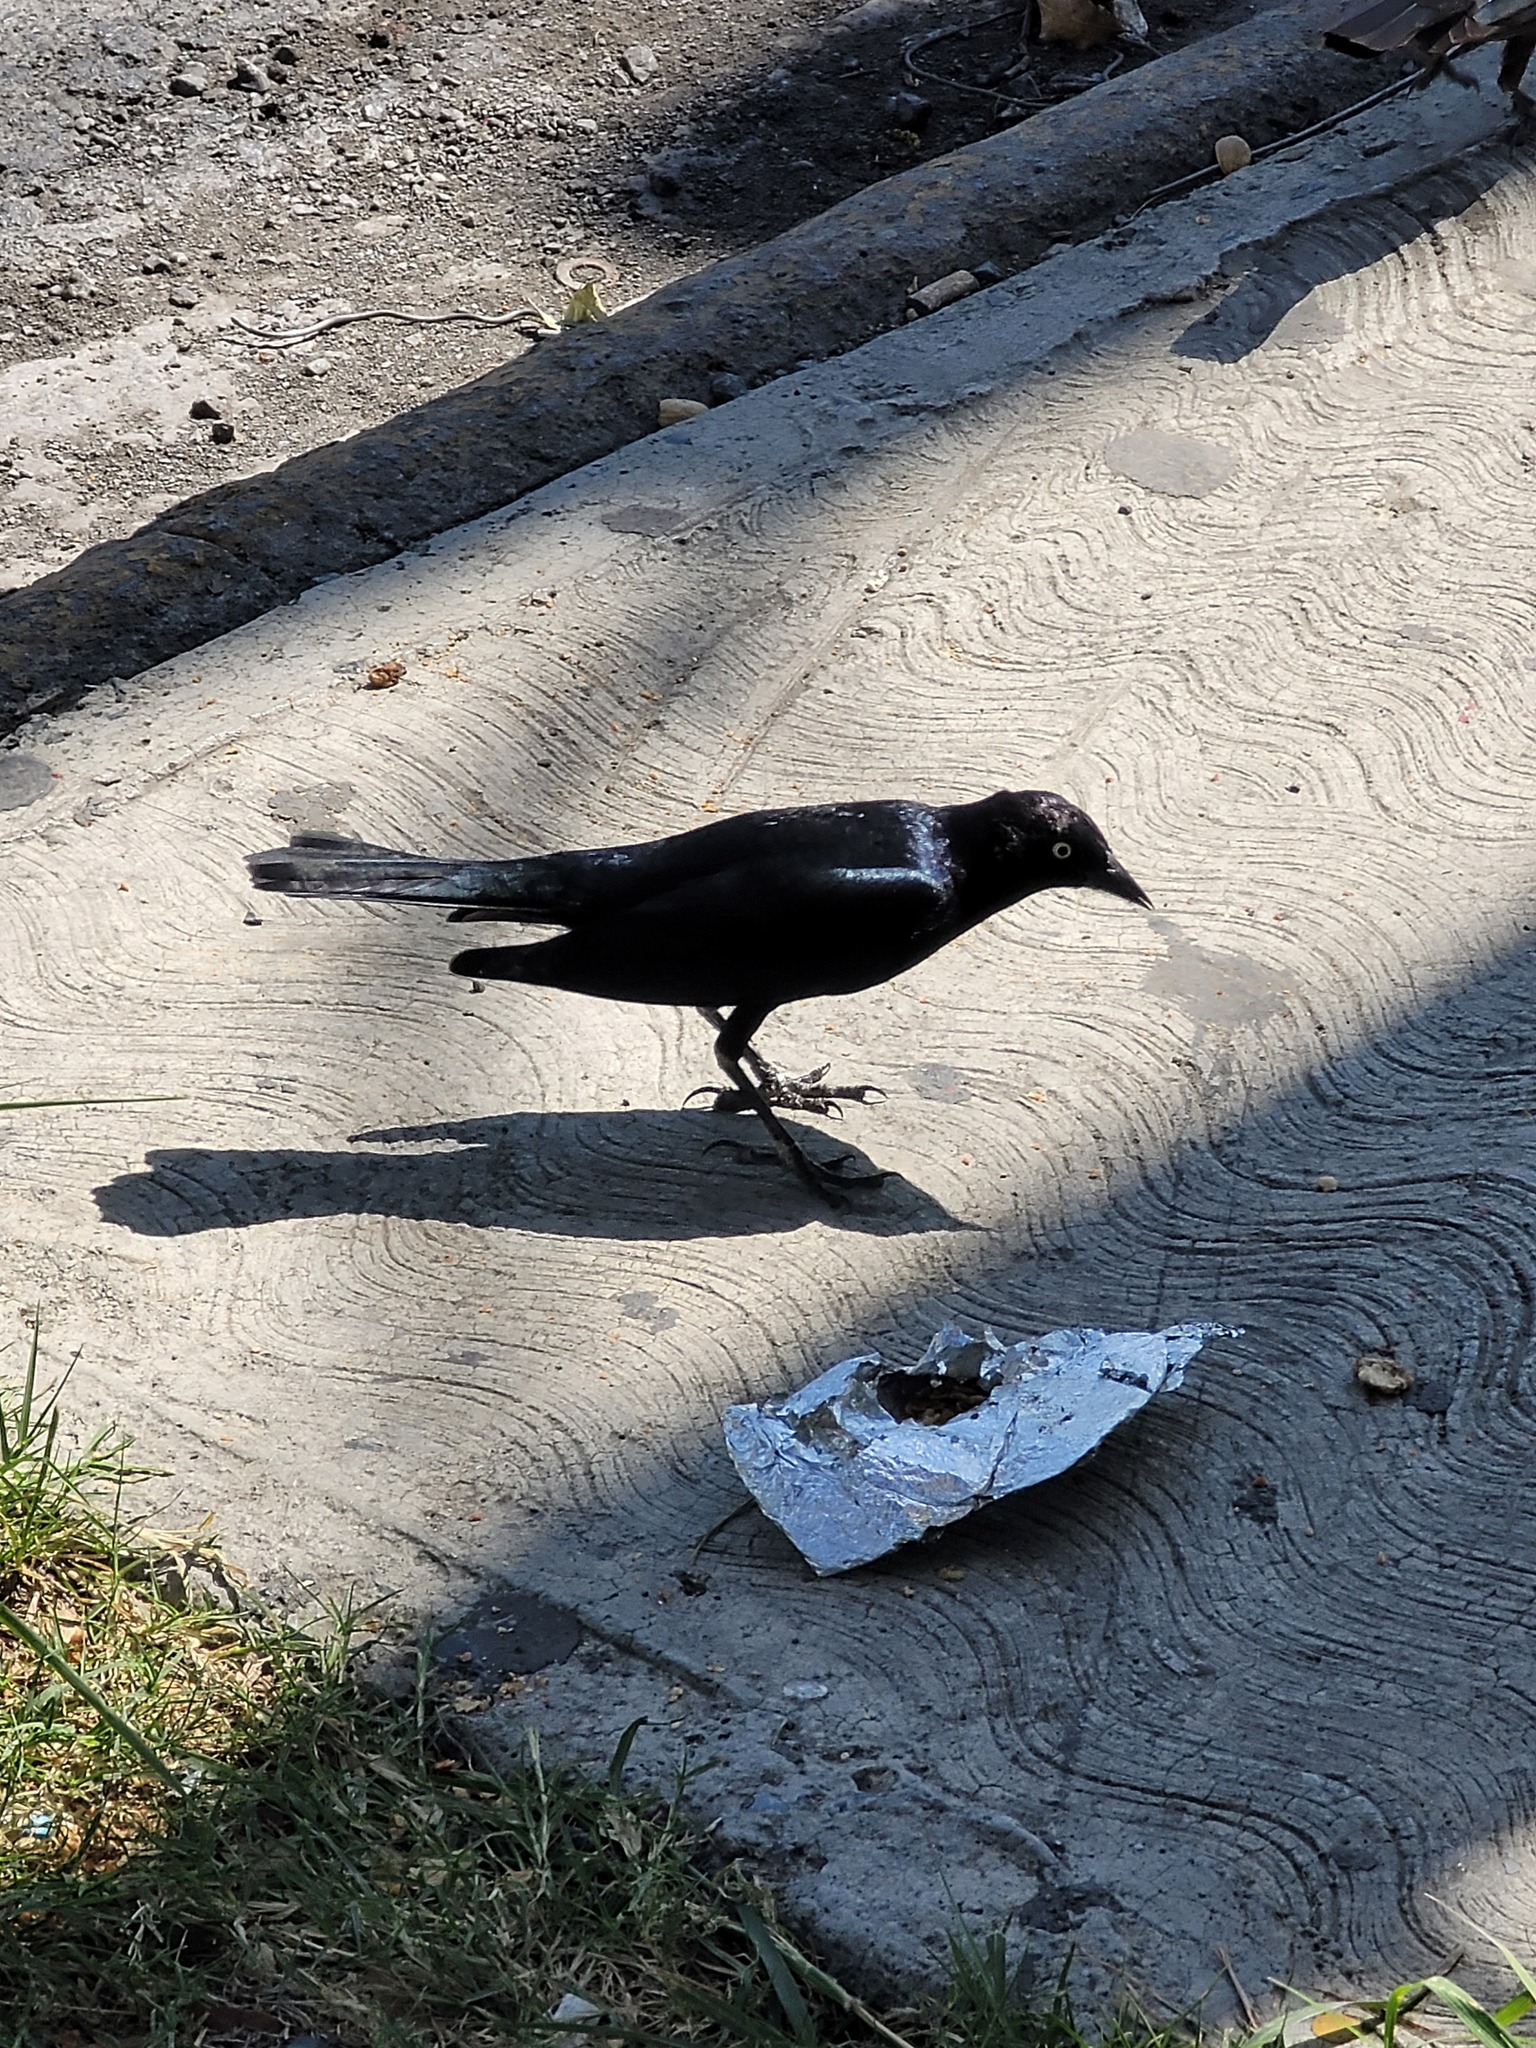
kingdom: Animalia
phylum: Chordata
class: Aves
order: Passeriformes
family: Icteridae
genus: Euphagus
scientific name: Euphagus cyanocephalus
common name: Brewer's blackbird
